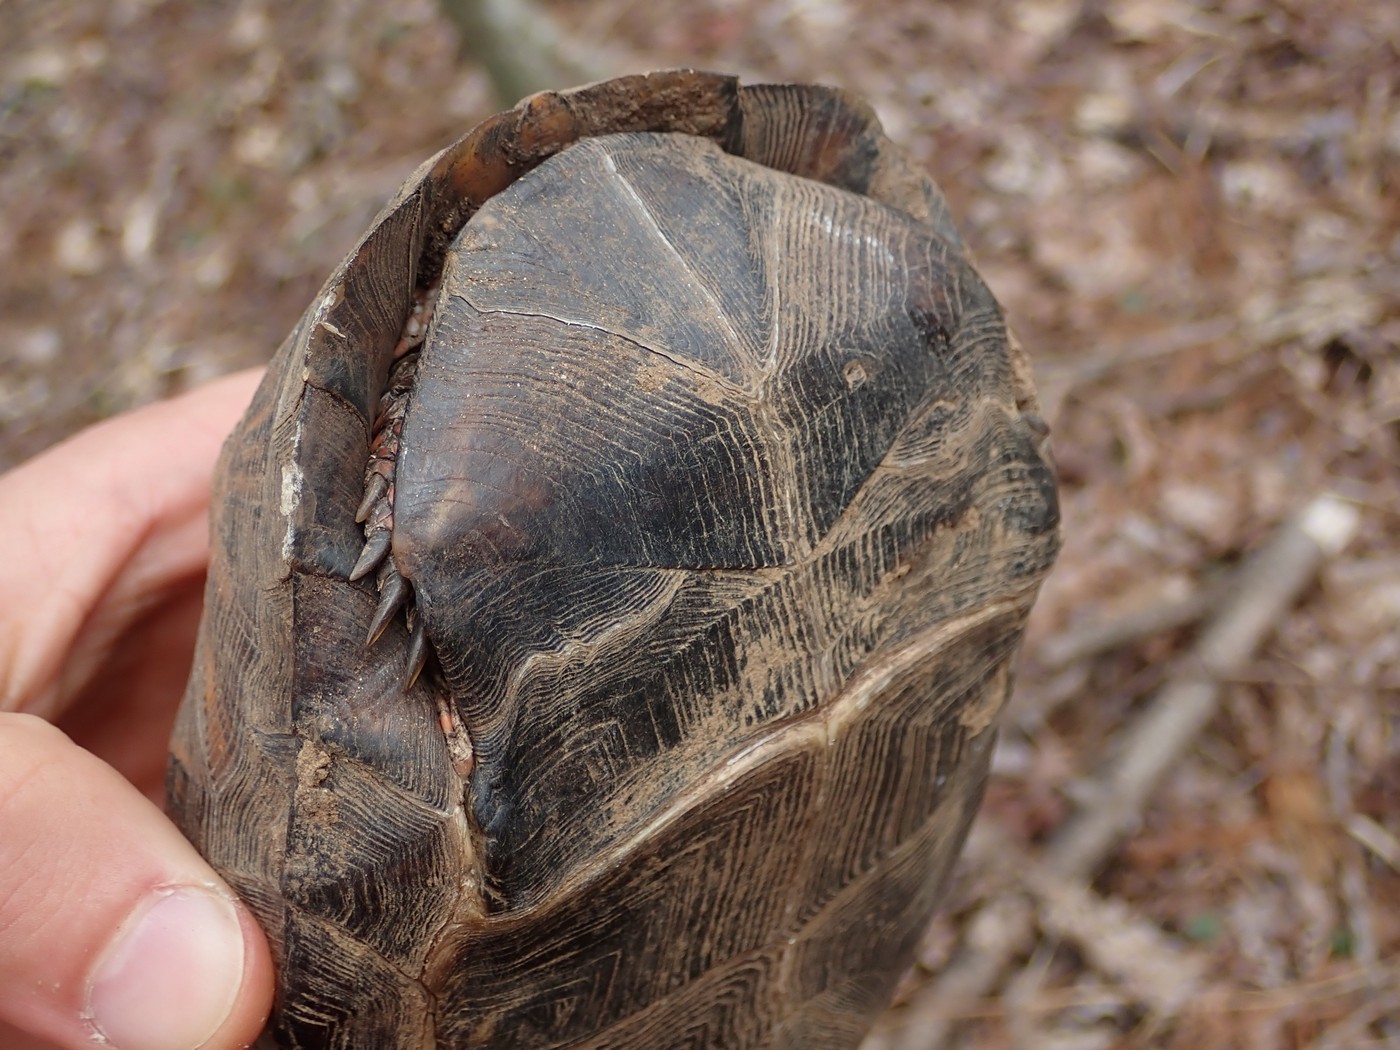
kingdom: Animalia
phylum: Chordata
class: Testudines
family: Emydidae
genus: Terrapene
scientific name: Terrapene carolina
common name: Common box turtle
